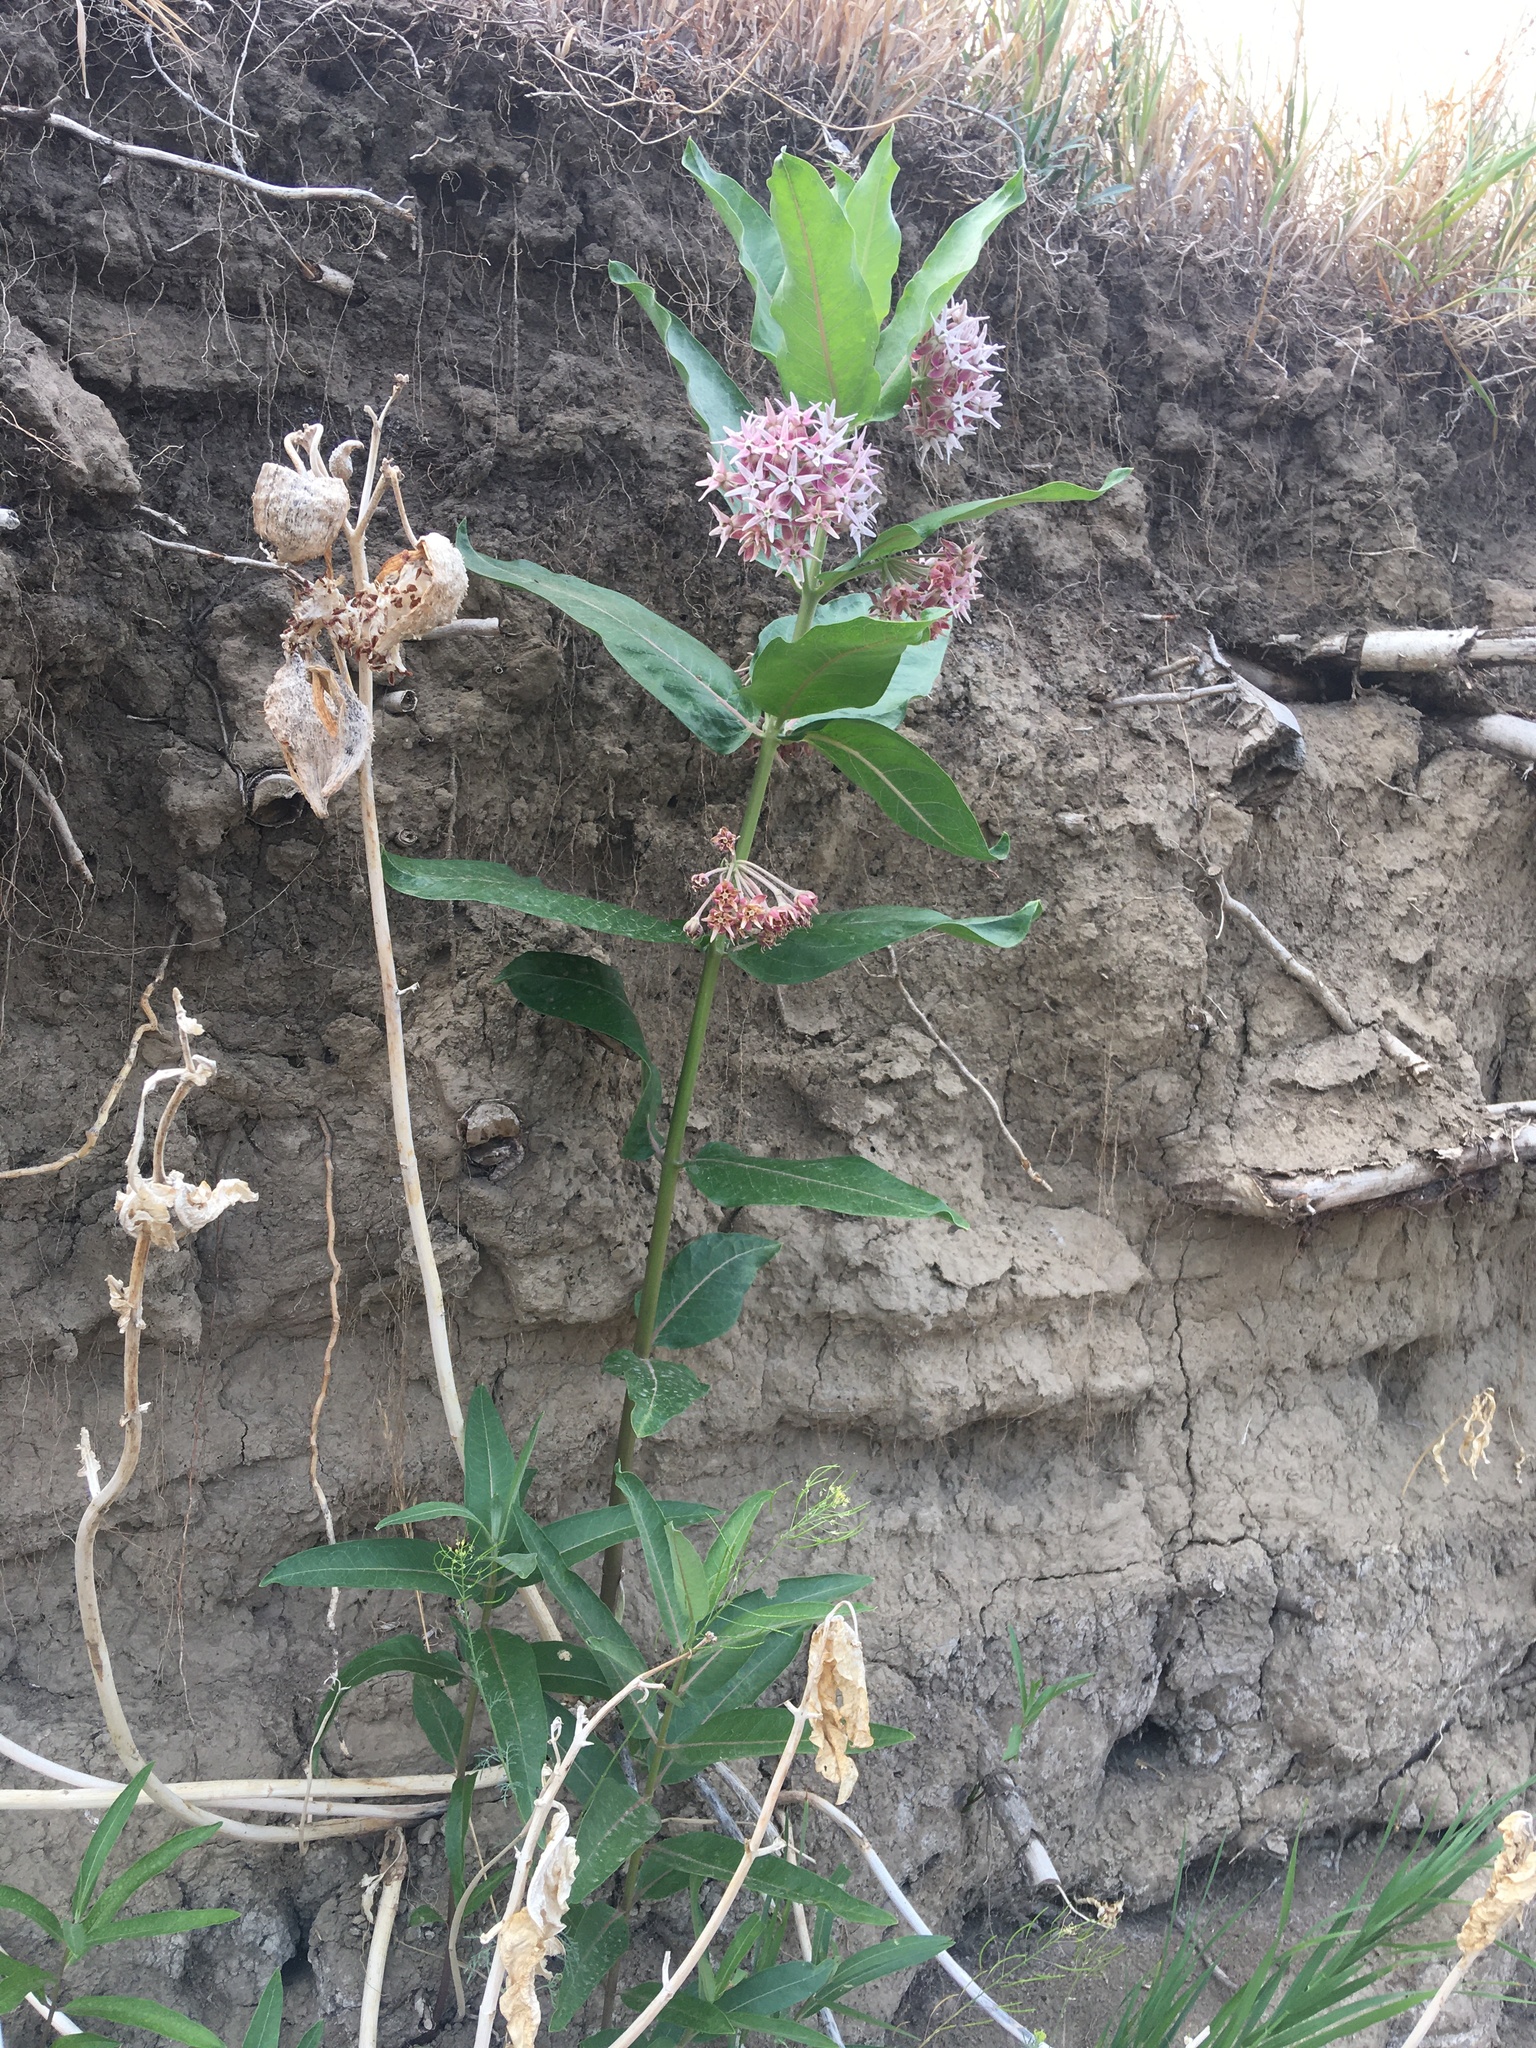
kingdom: Plantae
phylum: Tracheophyta
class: Magnoliopsida
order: Gentianales
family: Apocynaceae
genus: Asclepias
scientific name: Asclepias speciosa
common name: Showy milkweed
